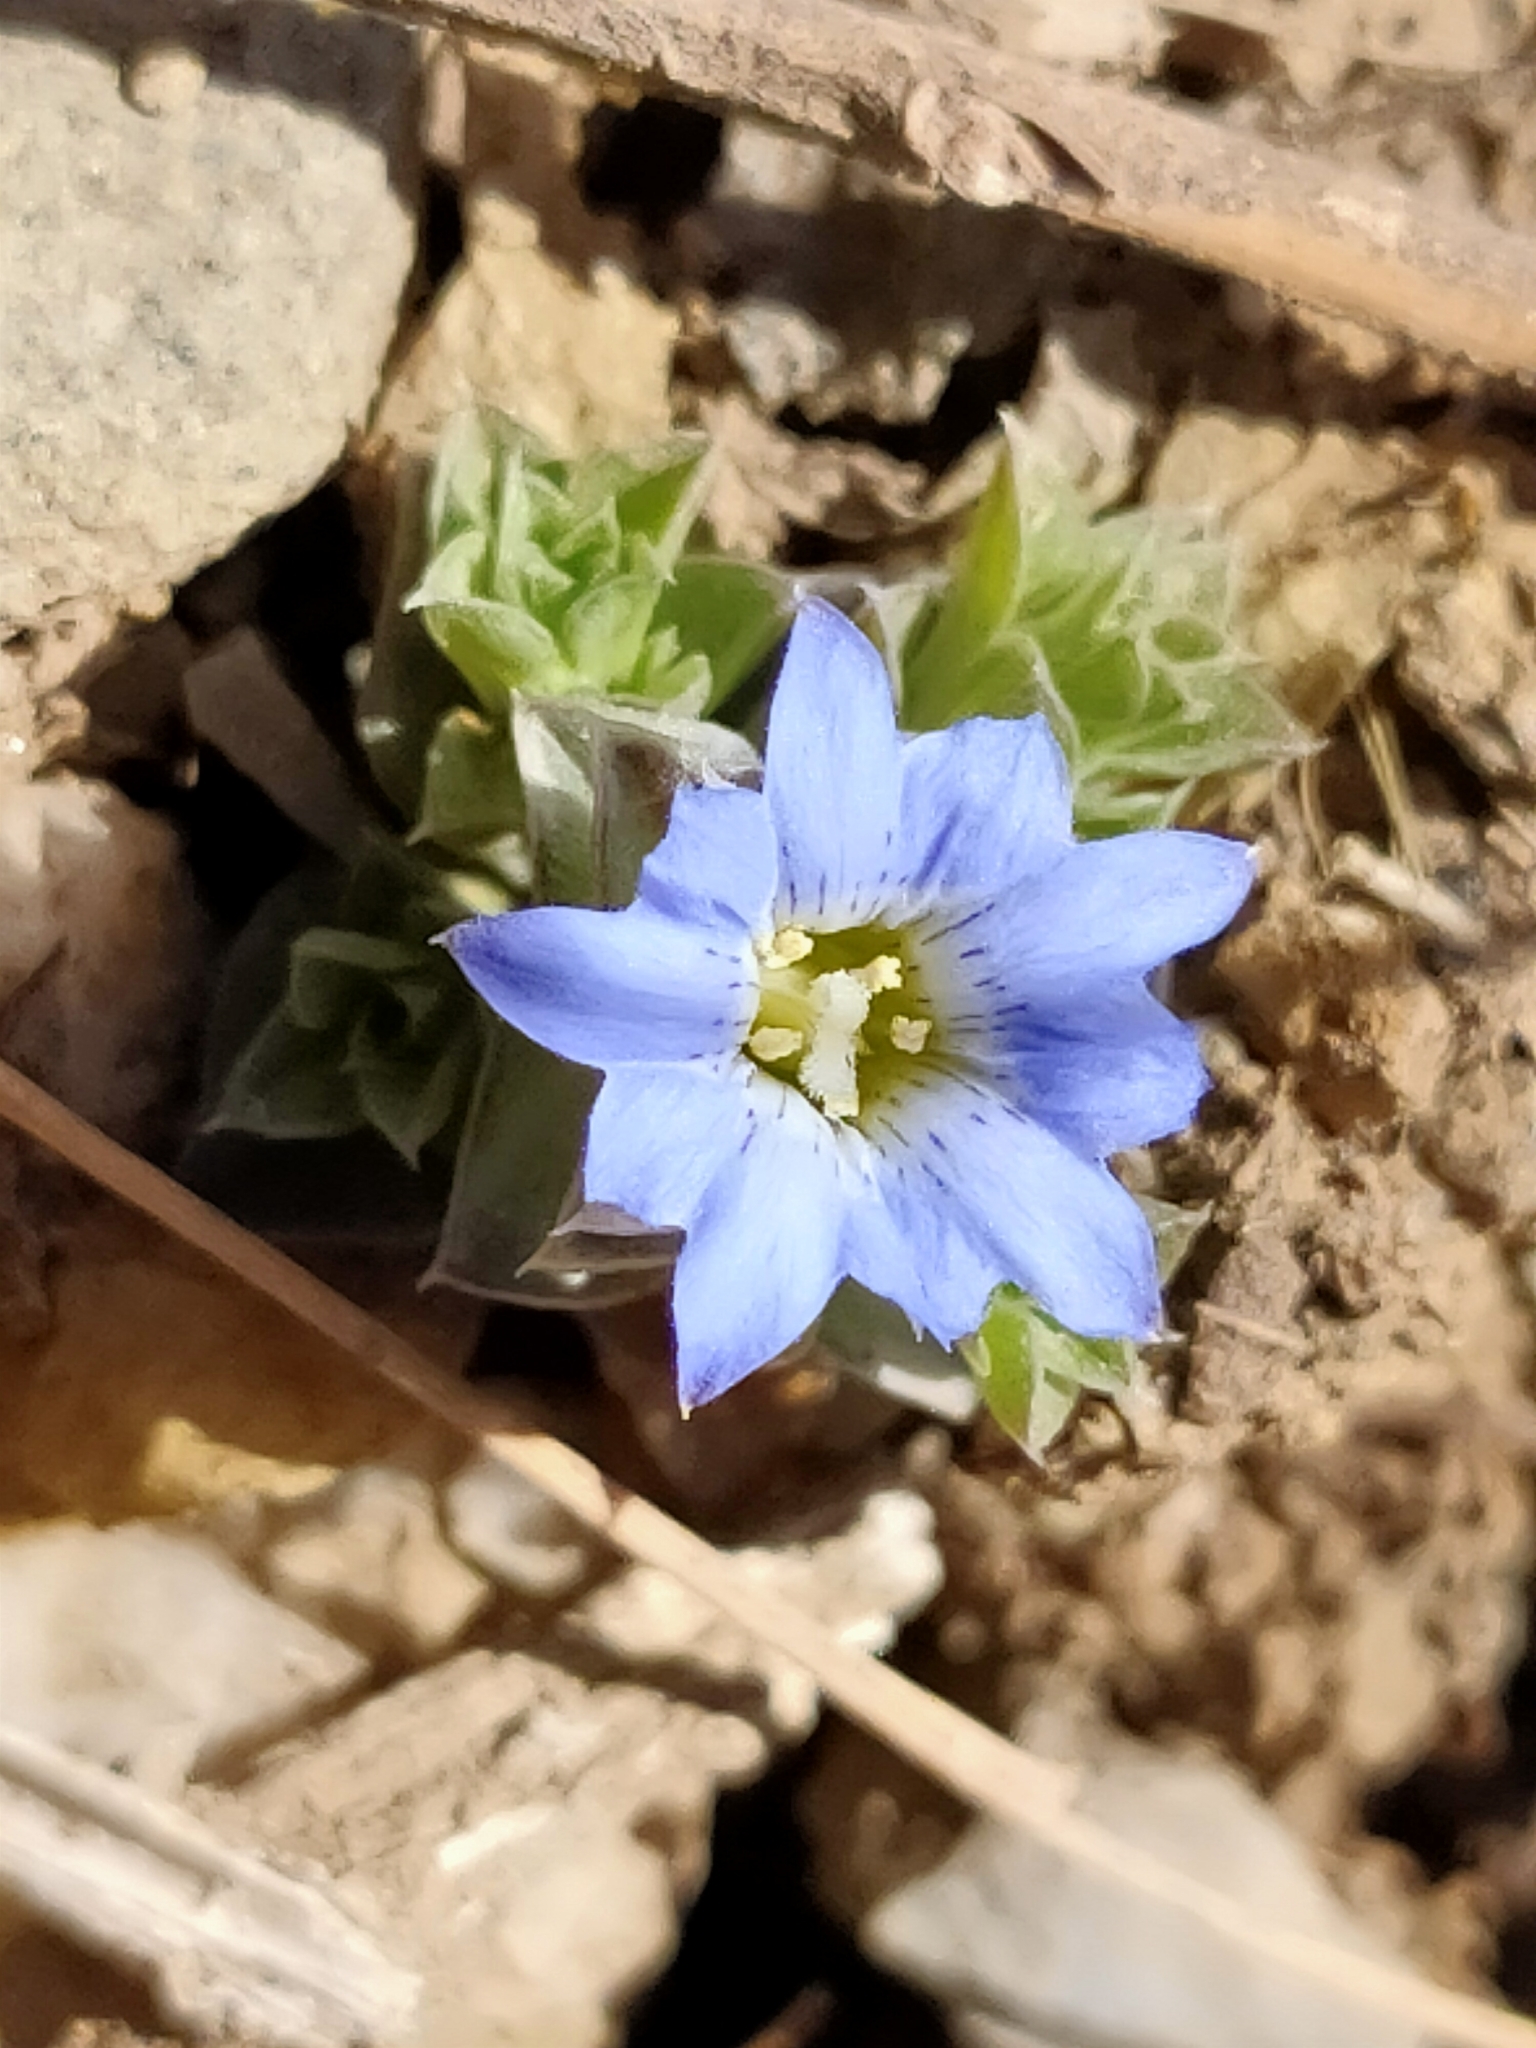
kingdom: Plantae
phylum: Tracheophyta
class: Magnoliopsida
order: Gentianales
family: Gentianaceae
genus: Gentiana
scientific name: Gentiana squarrosa
